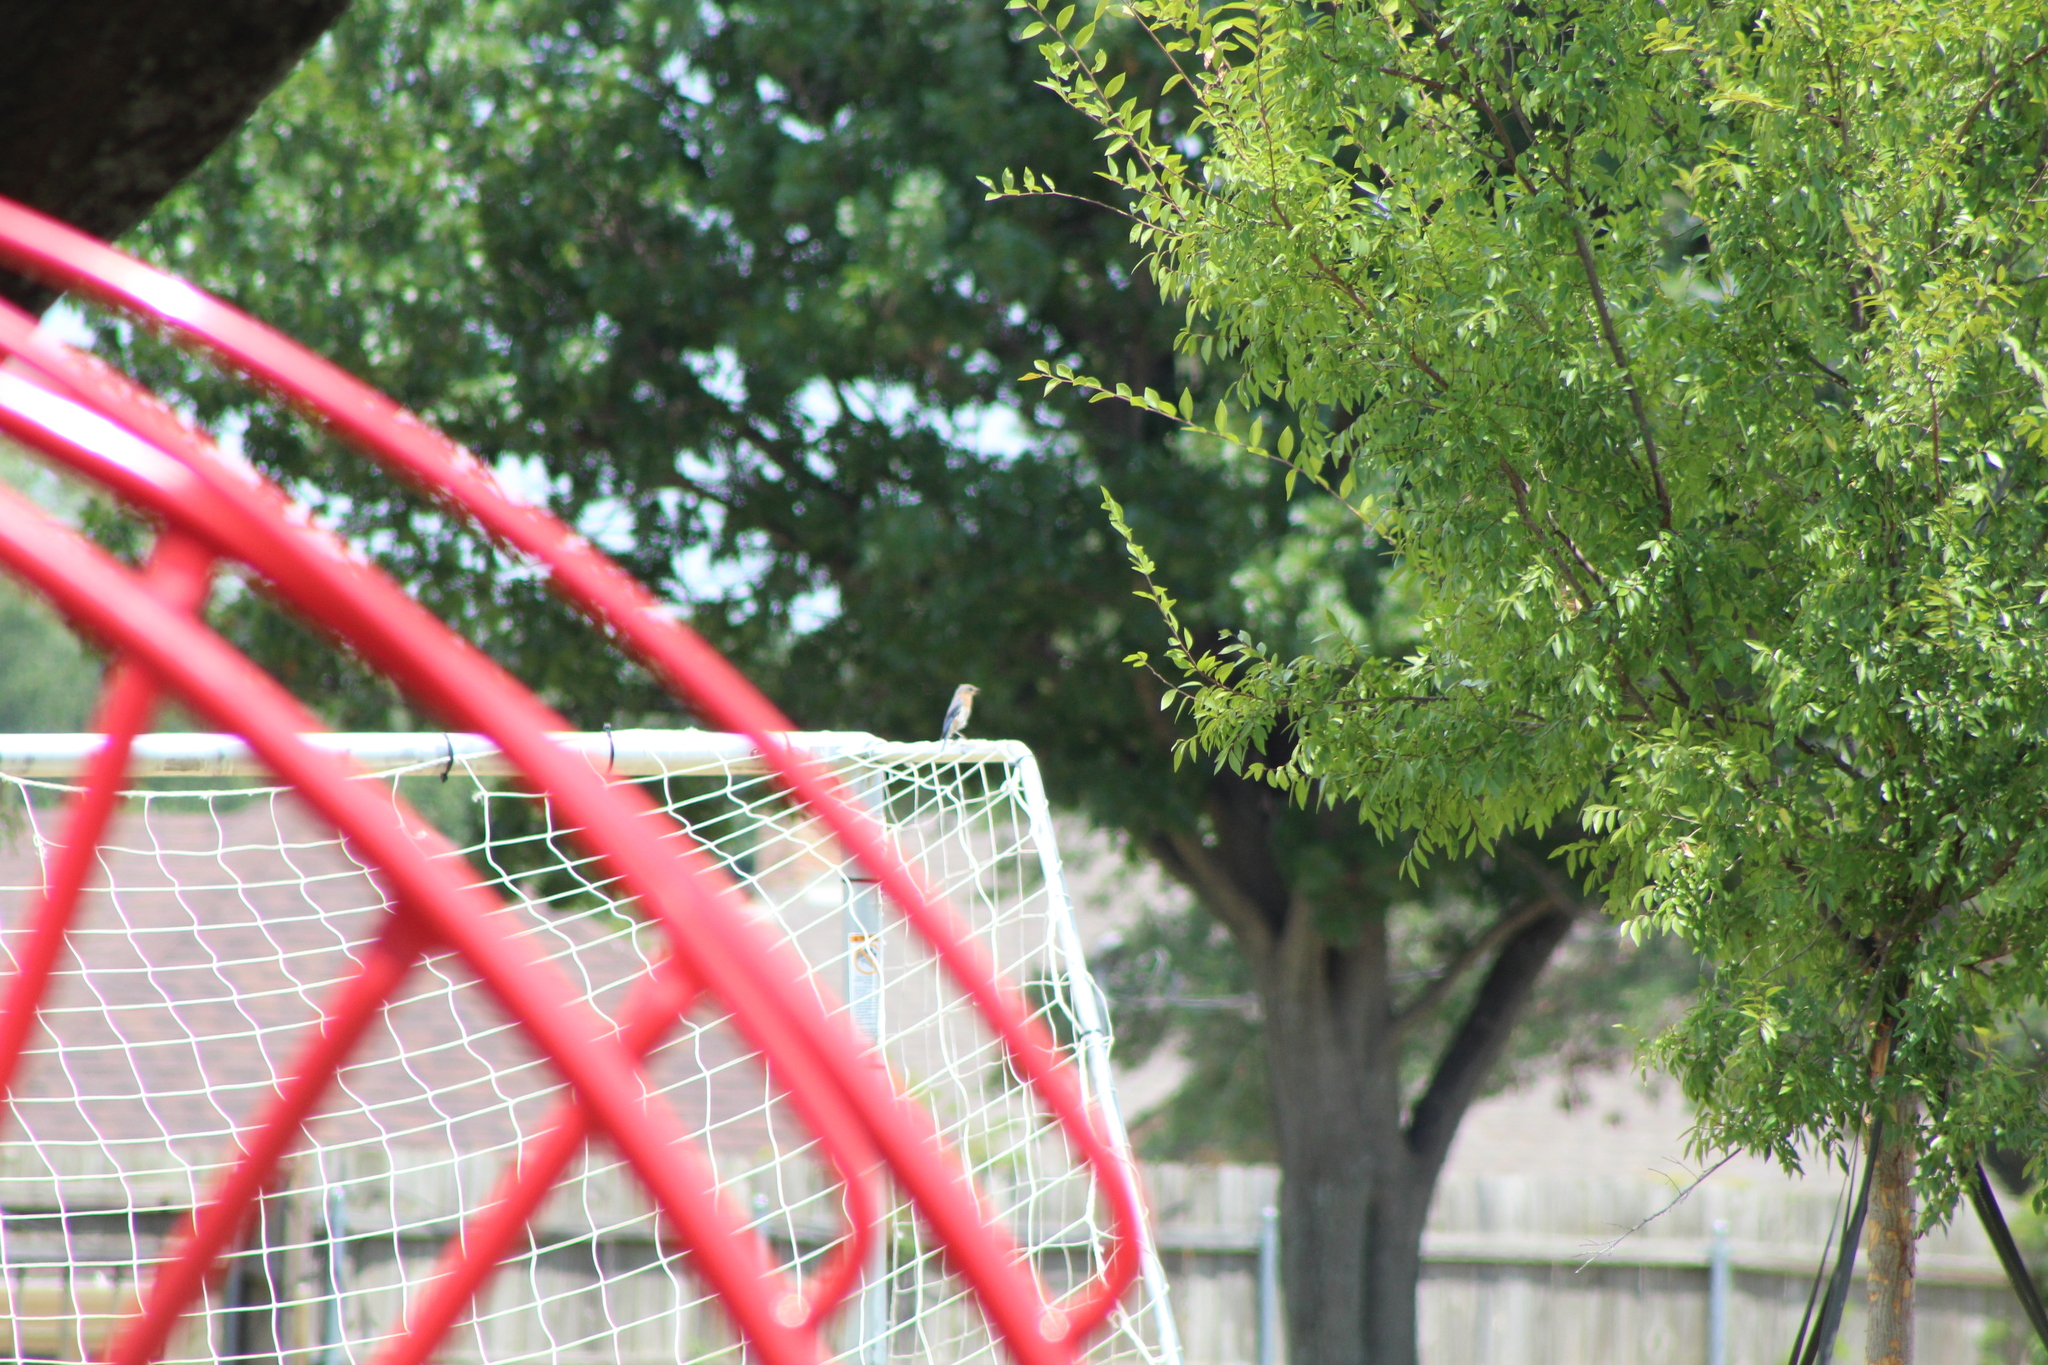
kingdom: Animalia
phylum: Chordata
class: Aves
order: Passeriformes
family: Turdidae
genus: Sialia
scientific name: Sialia sialis
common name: Eastern bluebird
